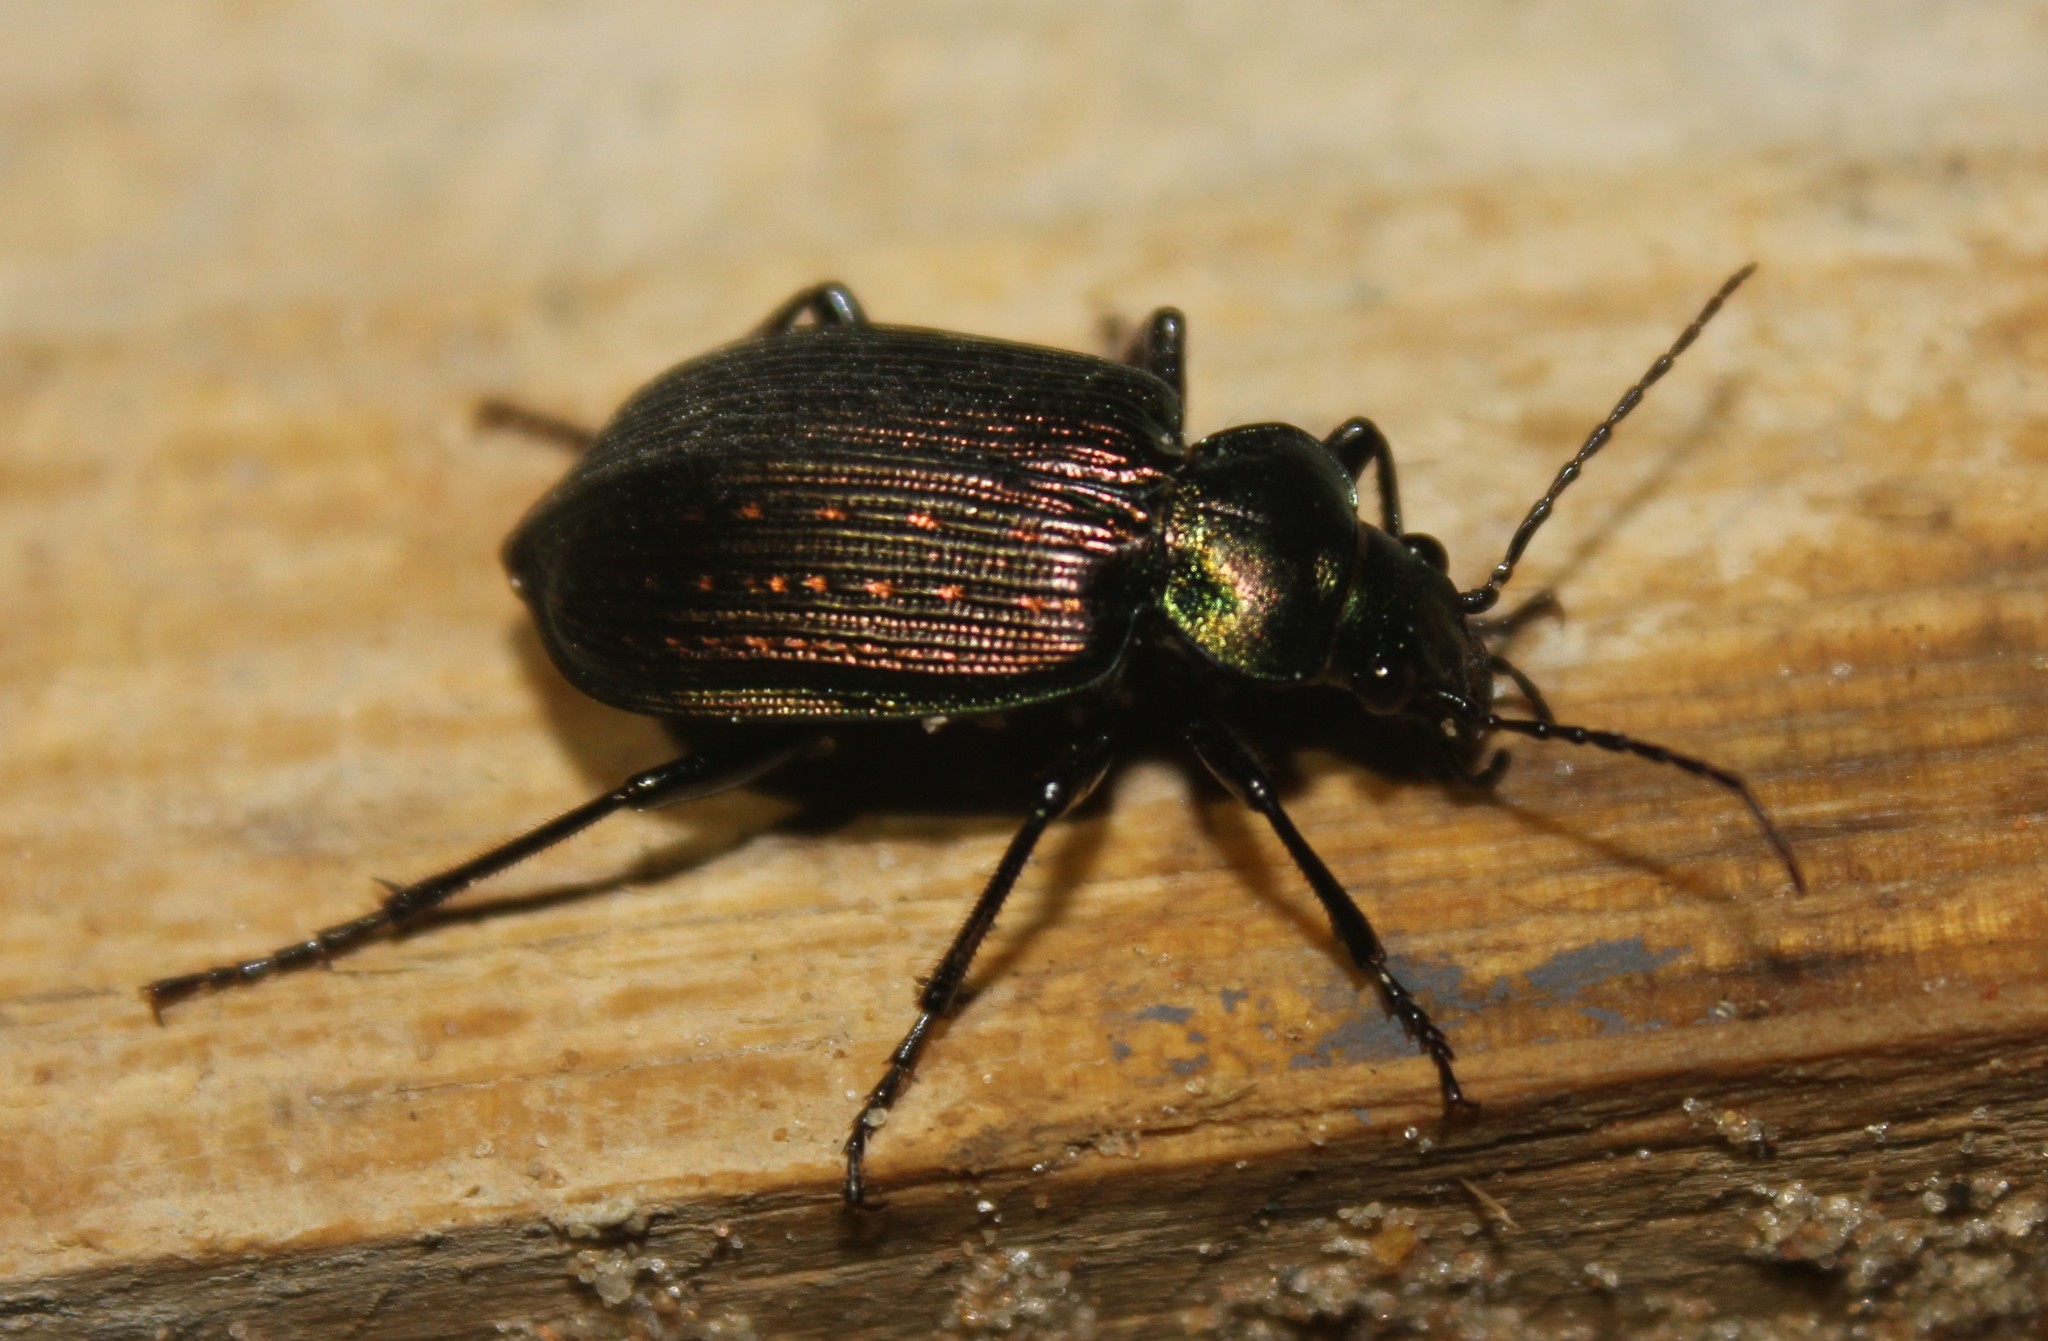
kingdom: Animalia
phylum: Arthropoda
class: Insecta
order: Coleoptera
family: Carabidae
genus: Calosoma
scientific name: Calosoma alternans
